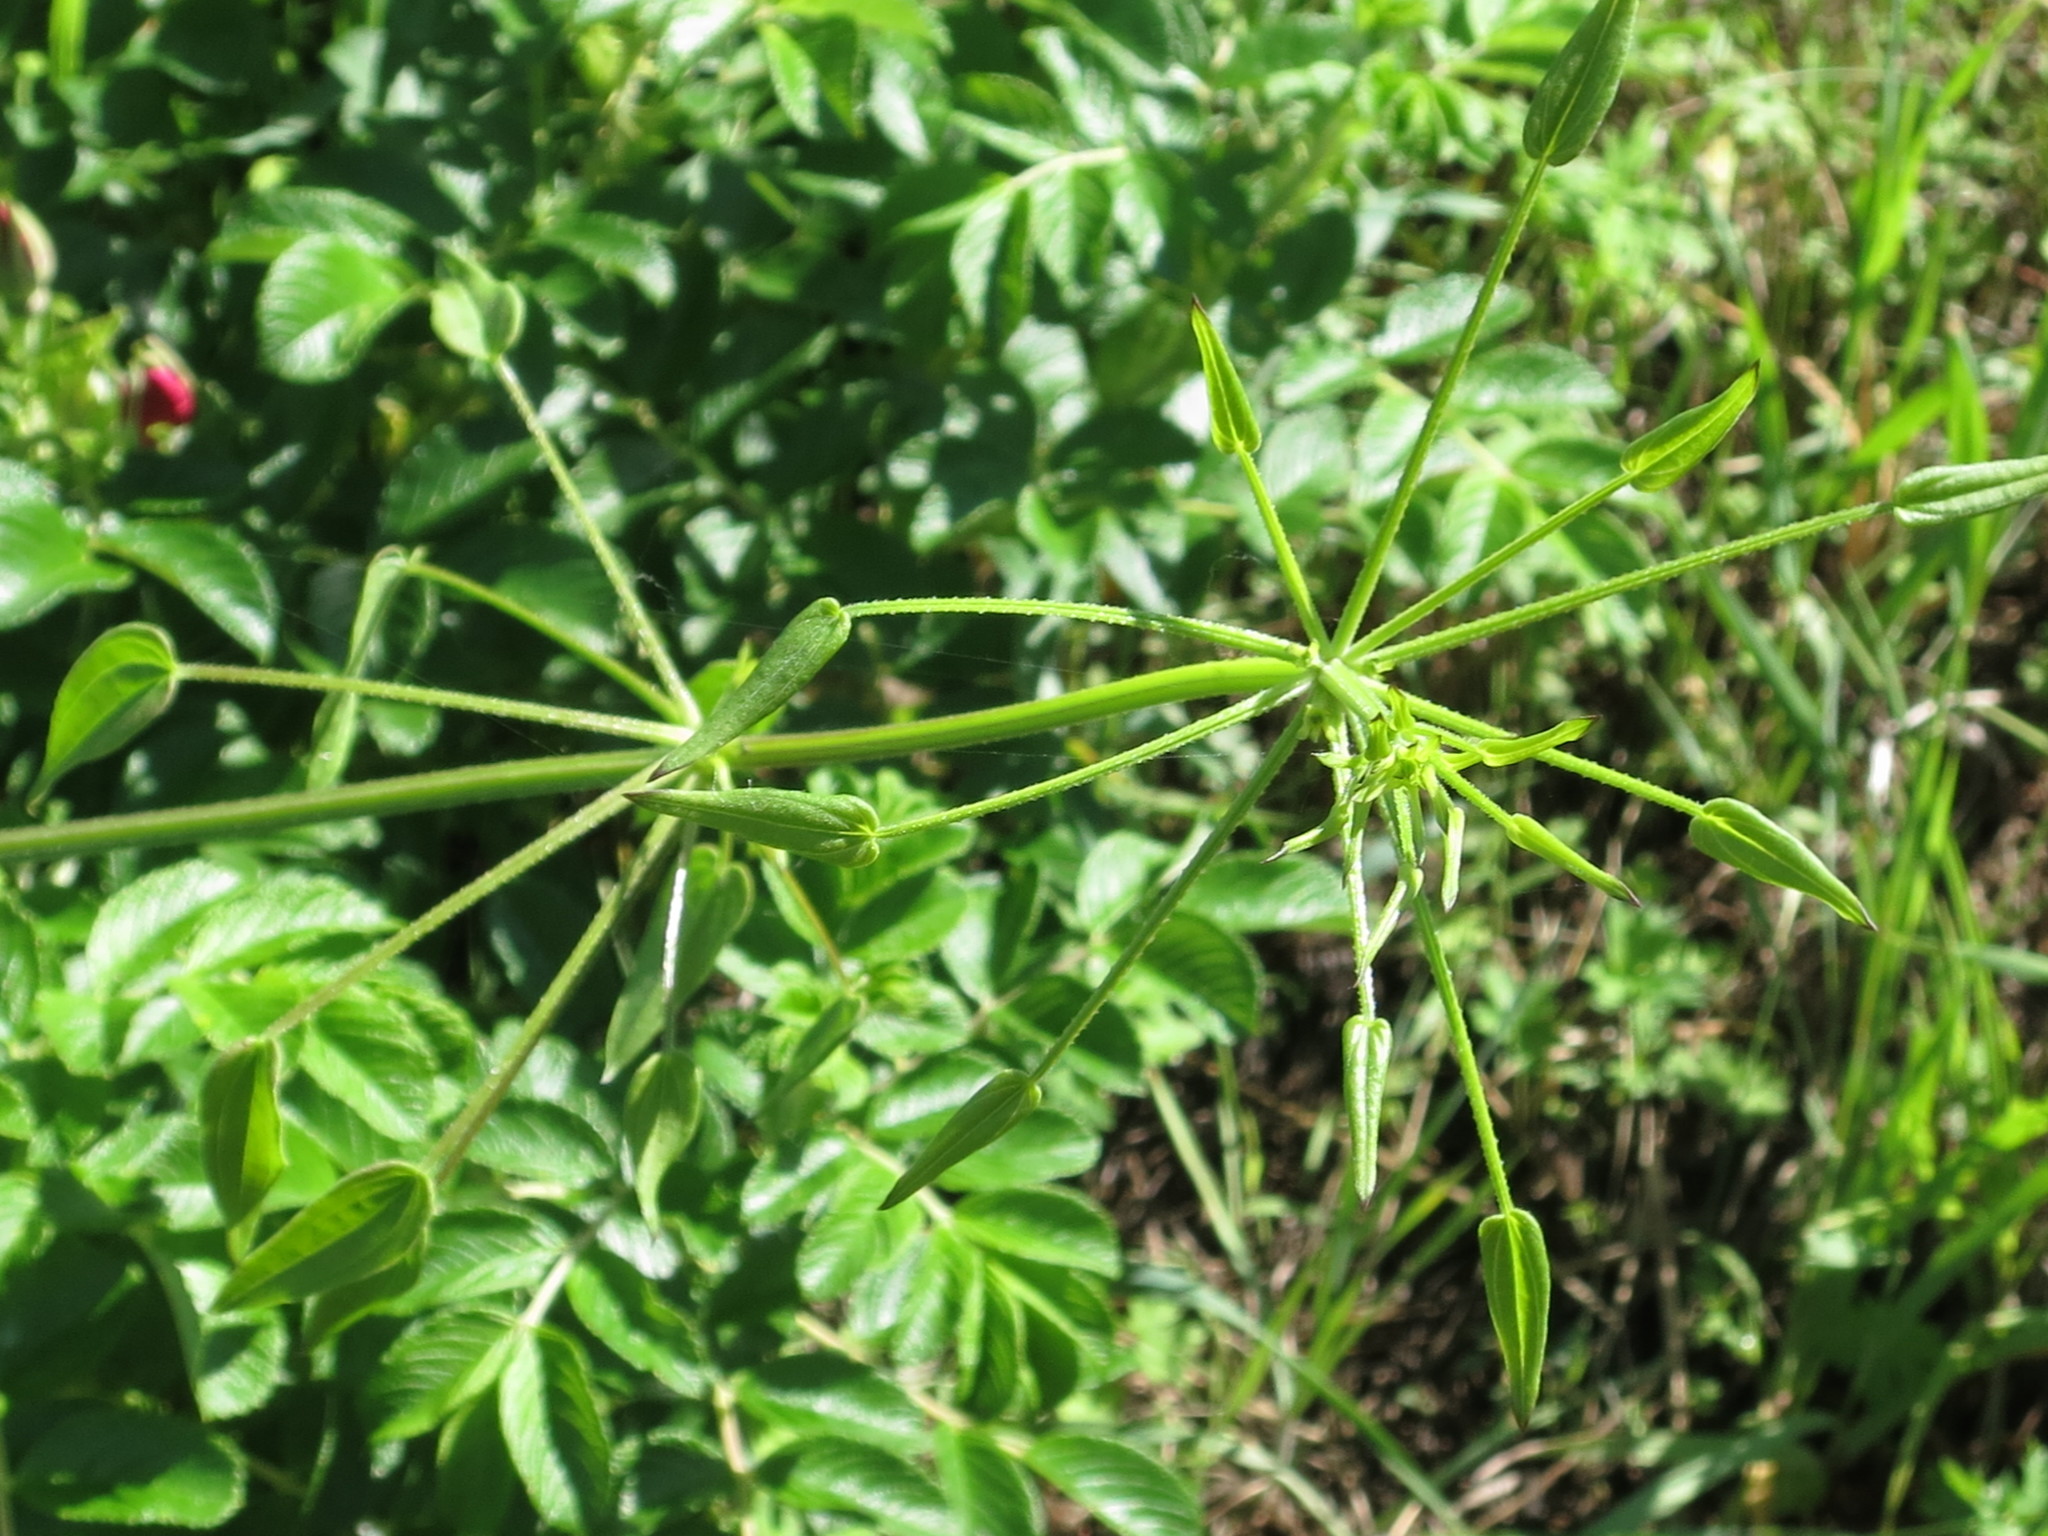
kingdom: Plantae
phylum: Tracheophyta
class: Magnoliopsida
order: Gentianales
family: Rubiaceae
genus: Rubia
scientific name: Rubia cordifolia
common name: Indian madder
